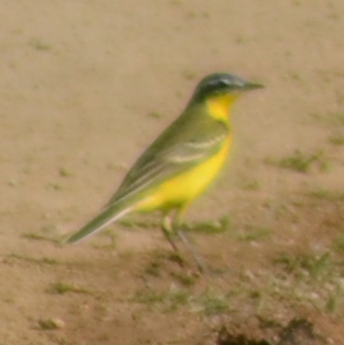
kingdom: Animalia
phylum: Chordata
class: Aves
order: Passeriformes
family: Motacillidae
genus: Motacilla
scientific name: Motacilla flava
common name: Western yellow wagtail
